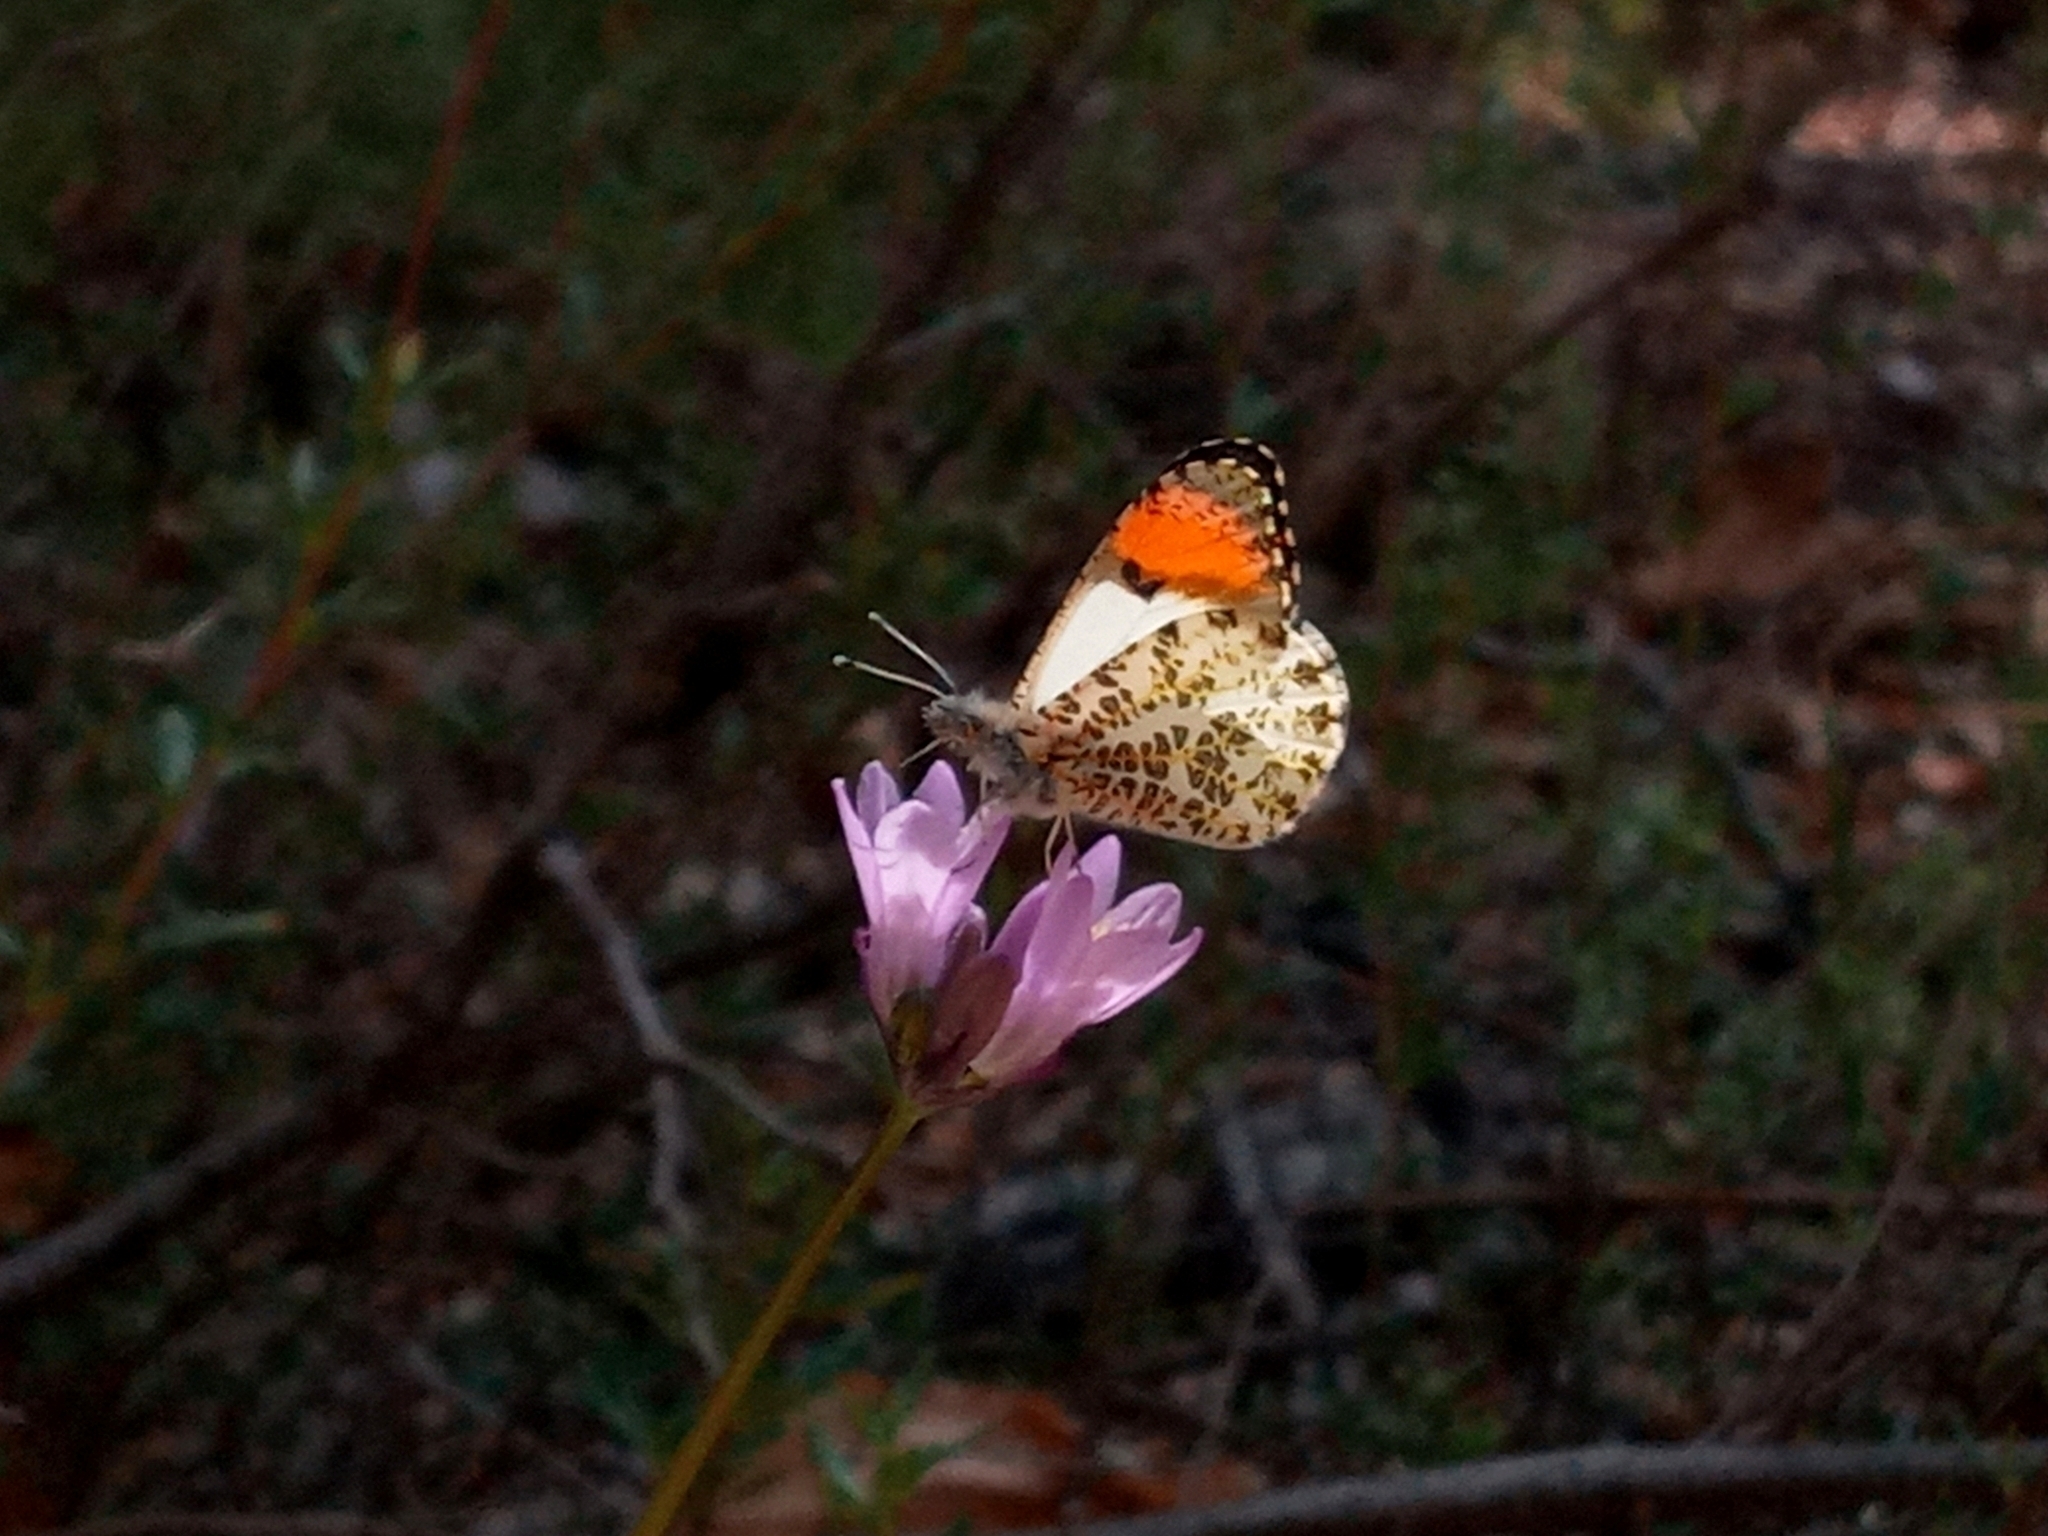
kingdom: Animalia
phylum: Arthropoda
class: Insecta
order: Lepidoptera
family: Pieridae
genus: Anthocharis
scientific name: Anthocharis sara
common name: Sara's orangetip
